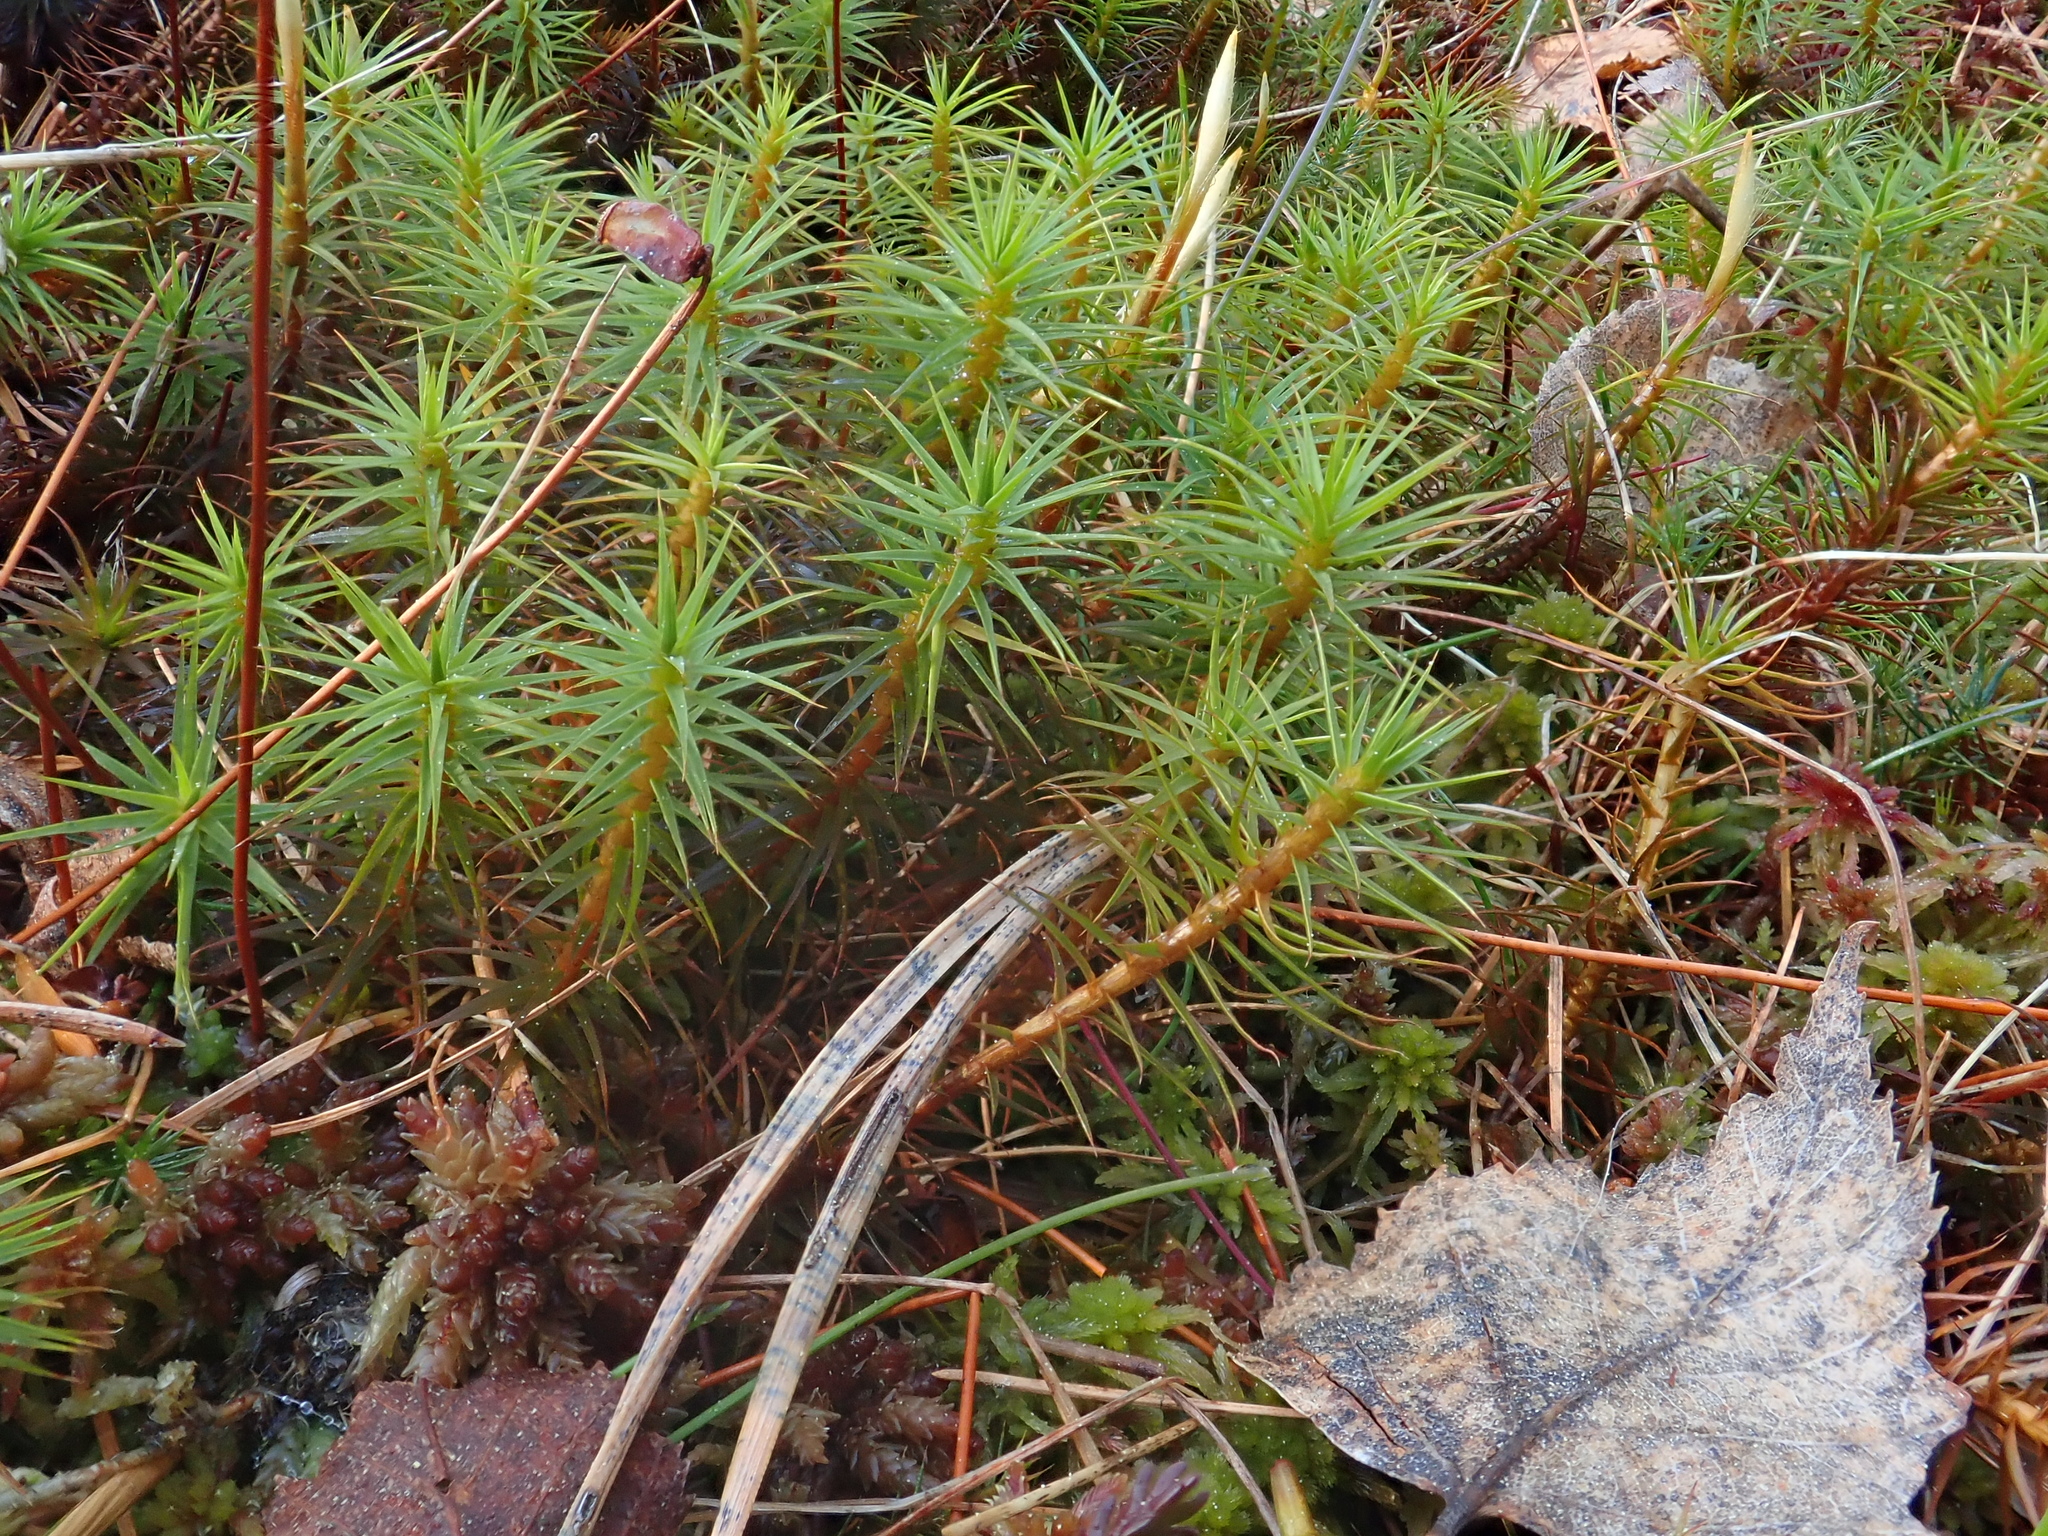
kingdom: Plantae
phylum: Bryophyta
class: Polytrichopsida
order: Polytrichales
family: Polytrichaceae
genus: Polytrichum
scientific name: Polytrichum commune
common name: Common haircap
